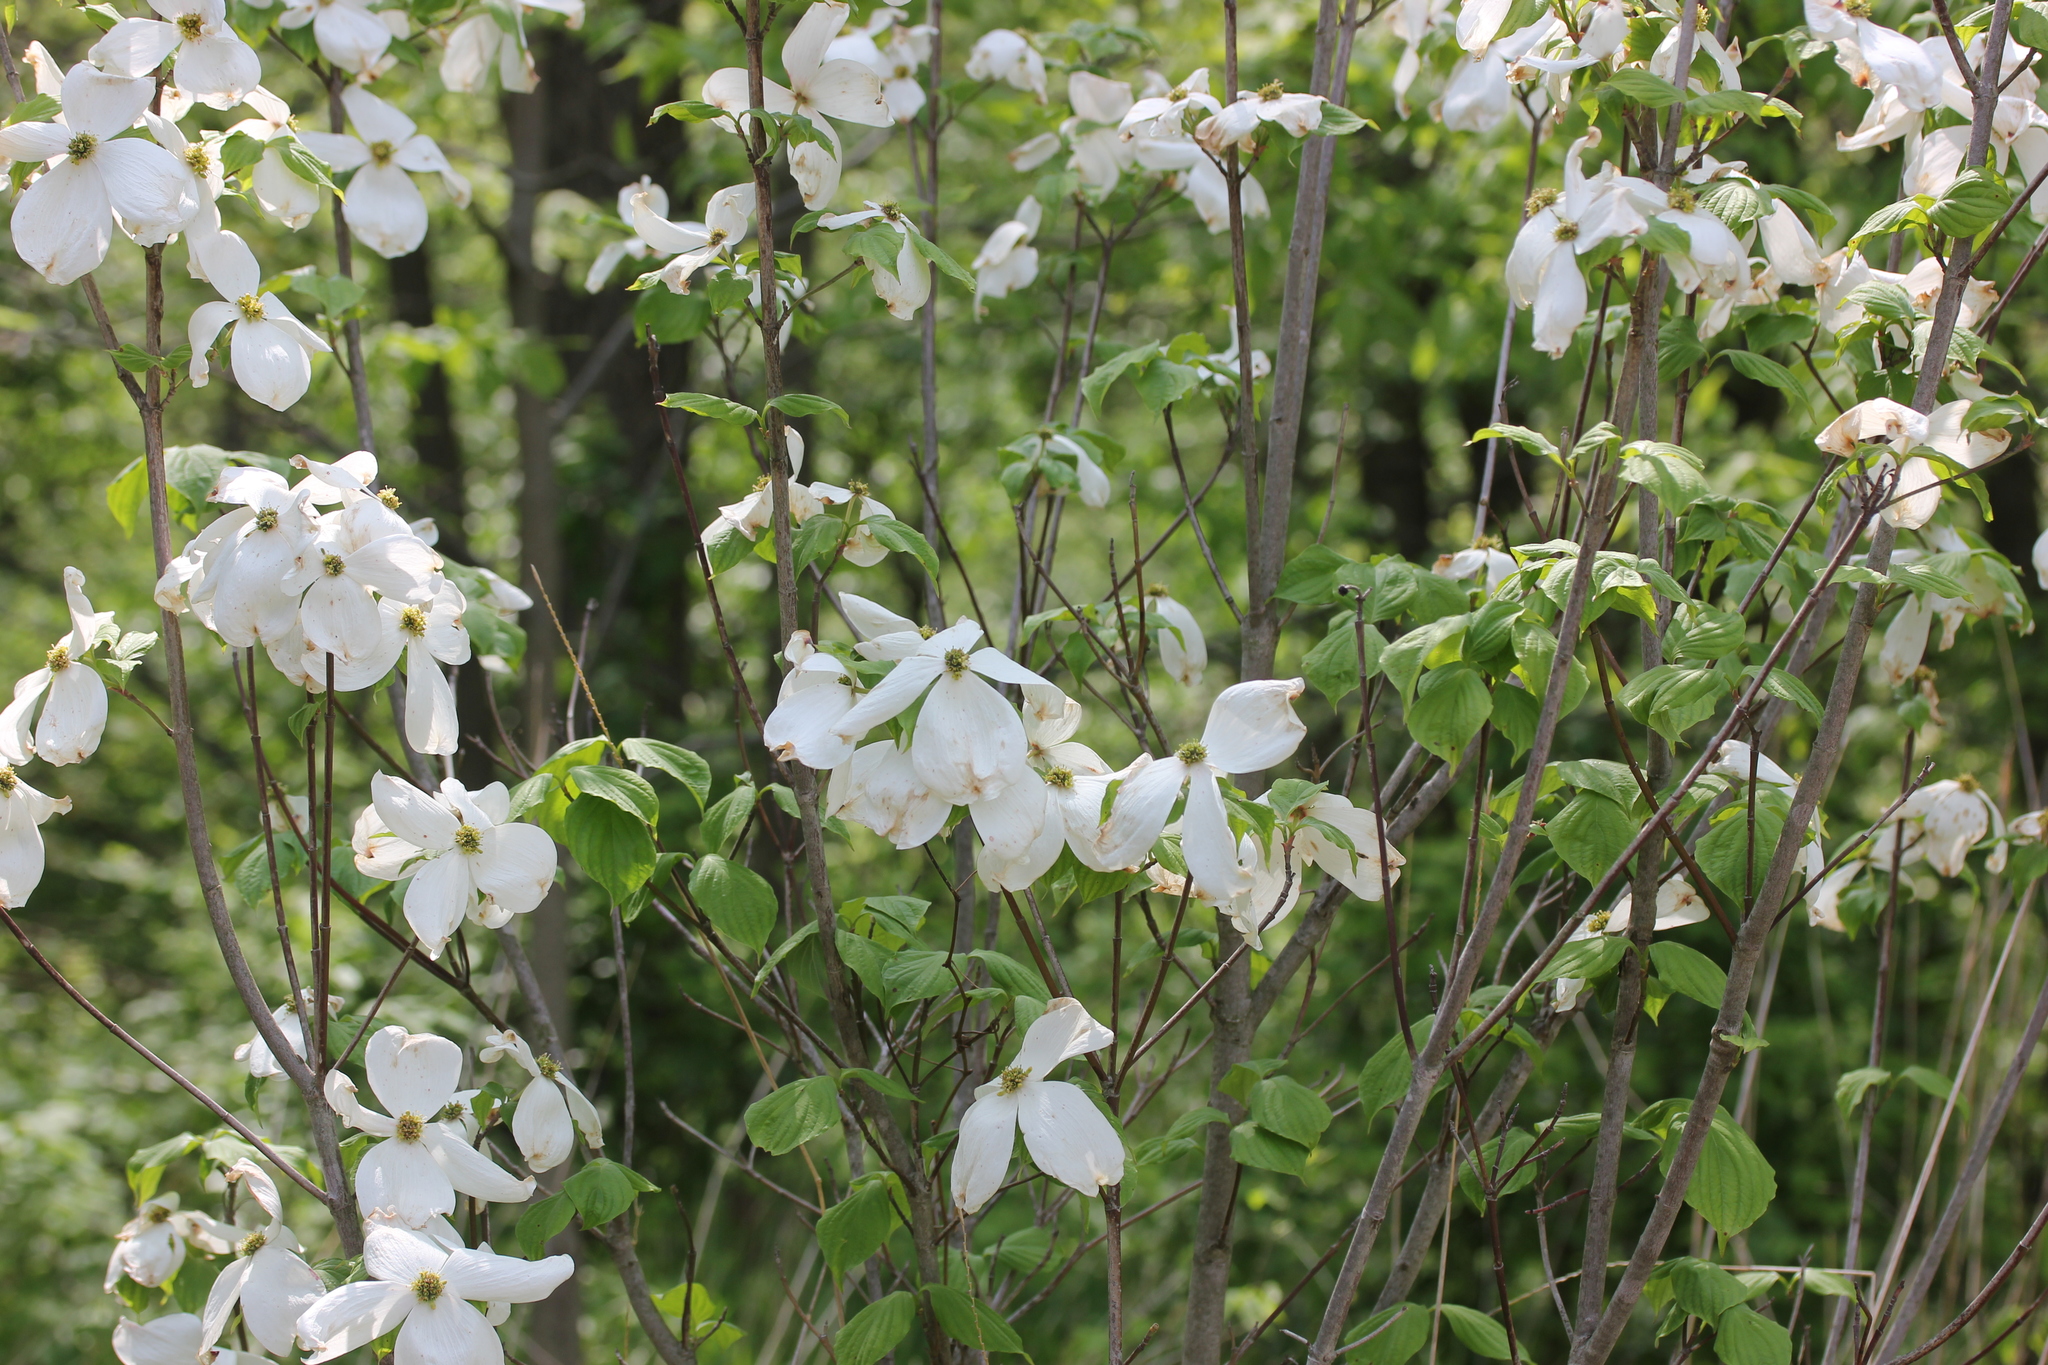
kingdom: Plantae
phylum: Tracheophyta
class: Magnoliopsida
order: Cornales
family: Cornaceae
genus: Cornus
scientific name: Cornus florida
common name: Flowering dogwood
